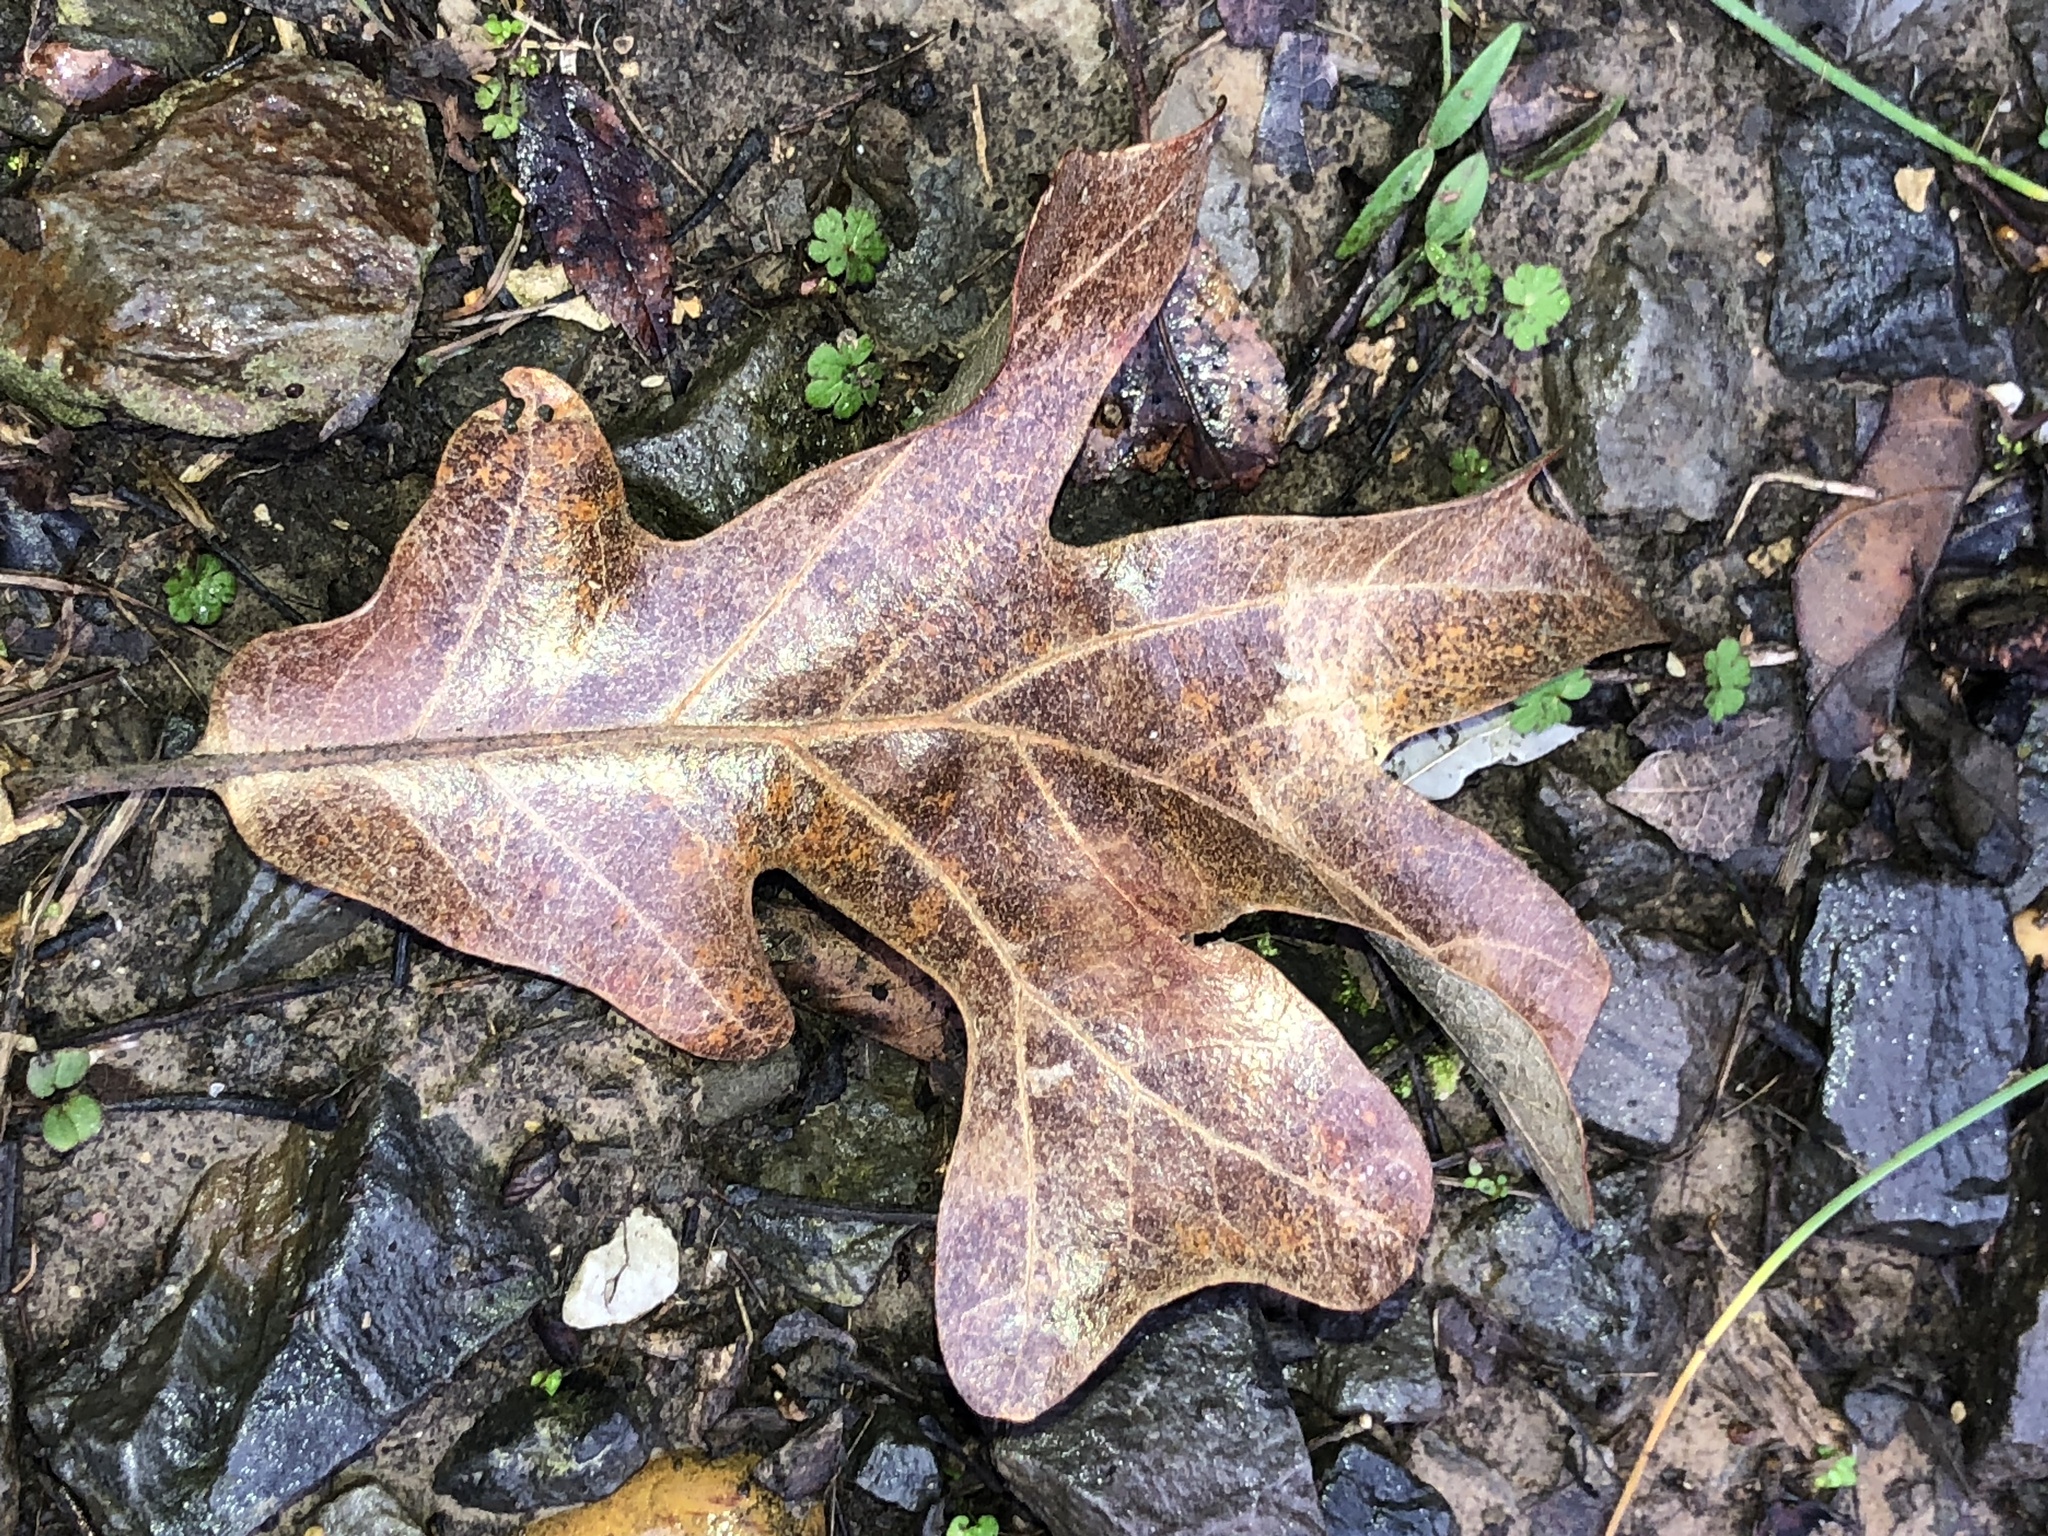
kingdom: Plantae
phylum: Tracheophyta
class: Magnoliopsida
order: Fagales
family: Fagaceae
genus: Quercus
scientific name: Quercus stellata
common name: Post oak
